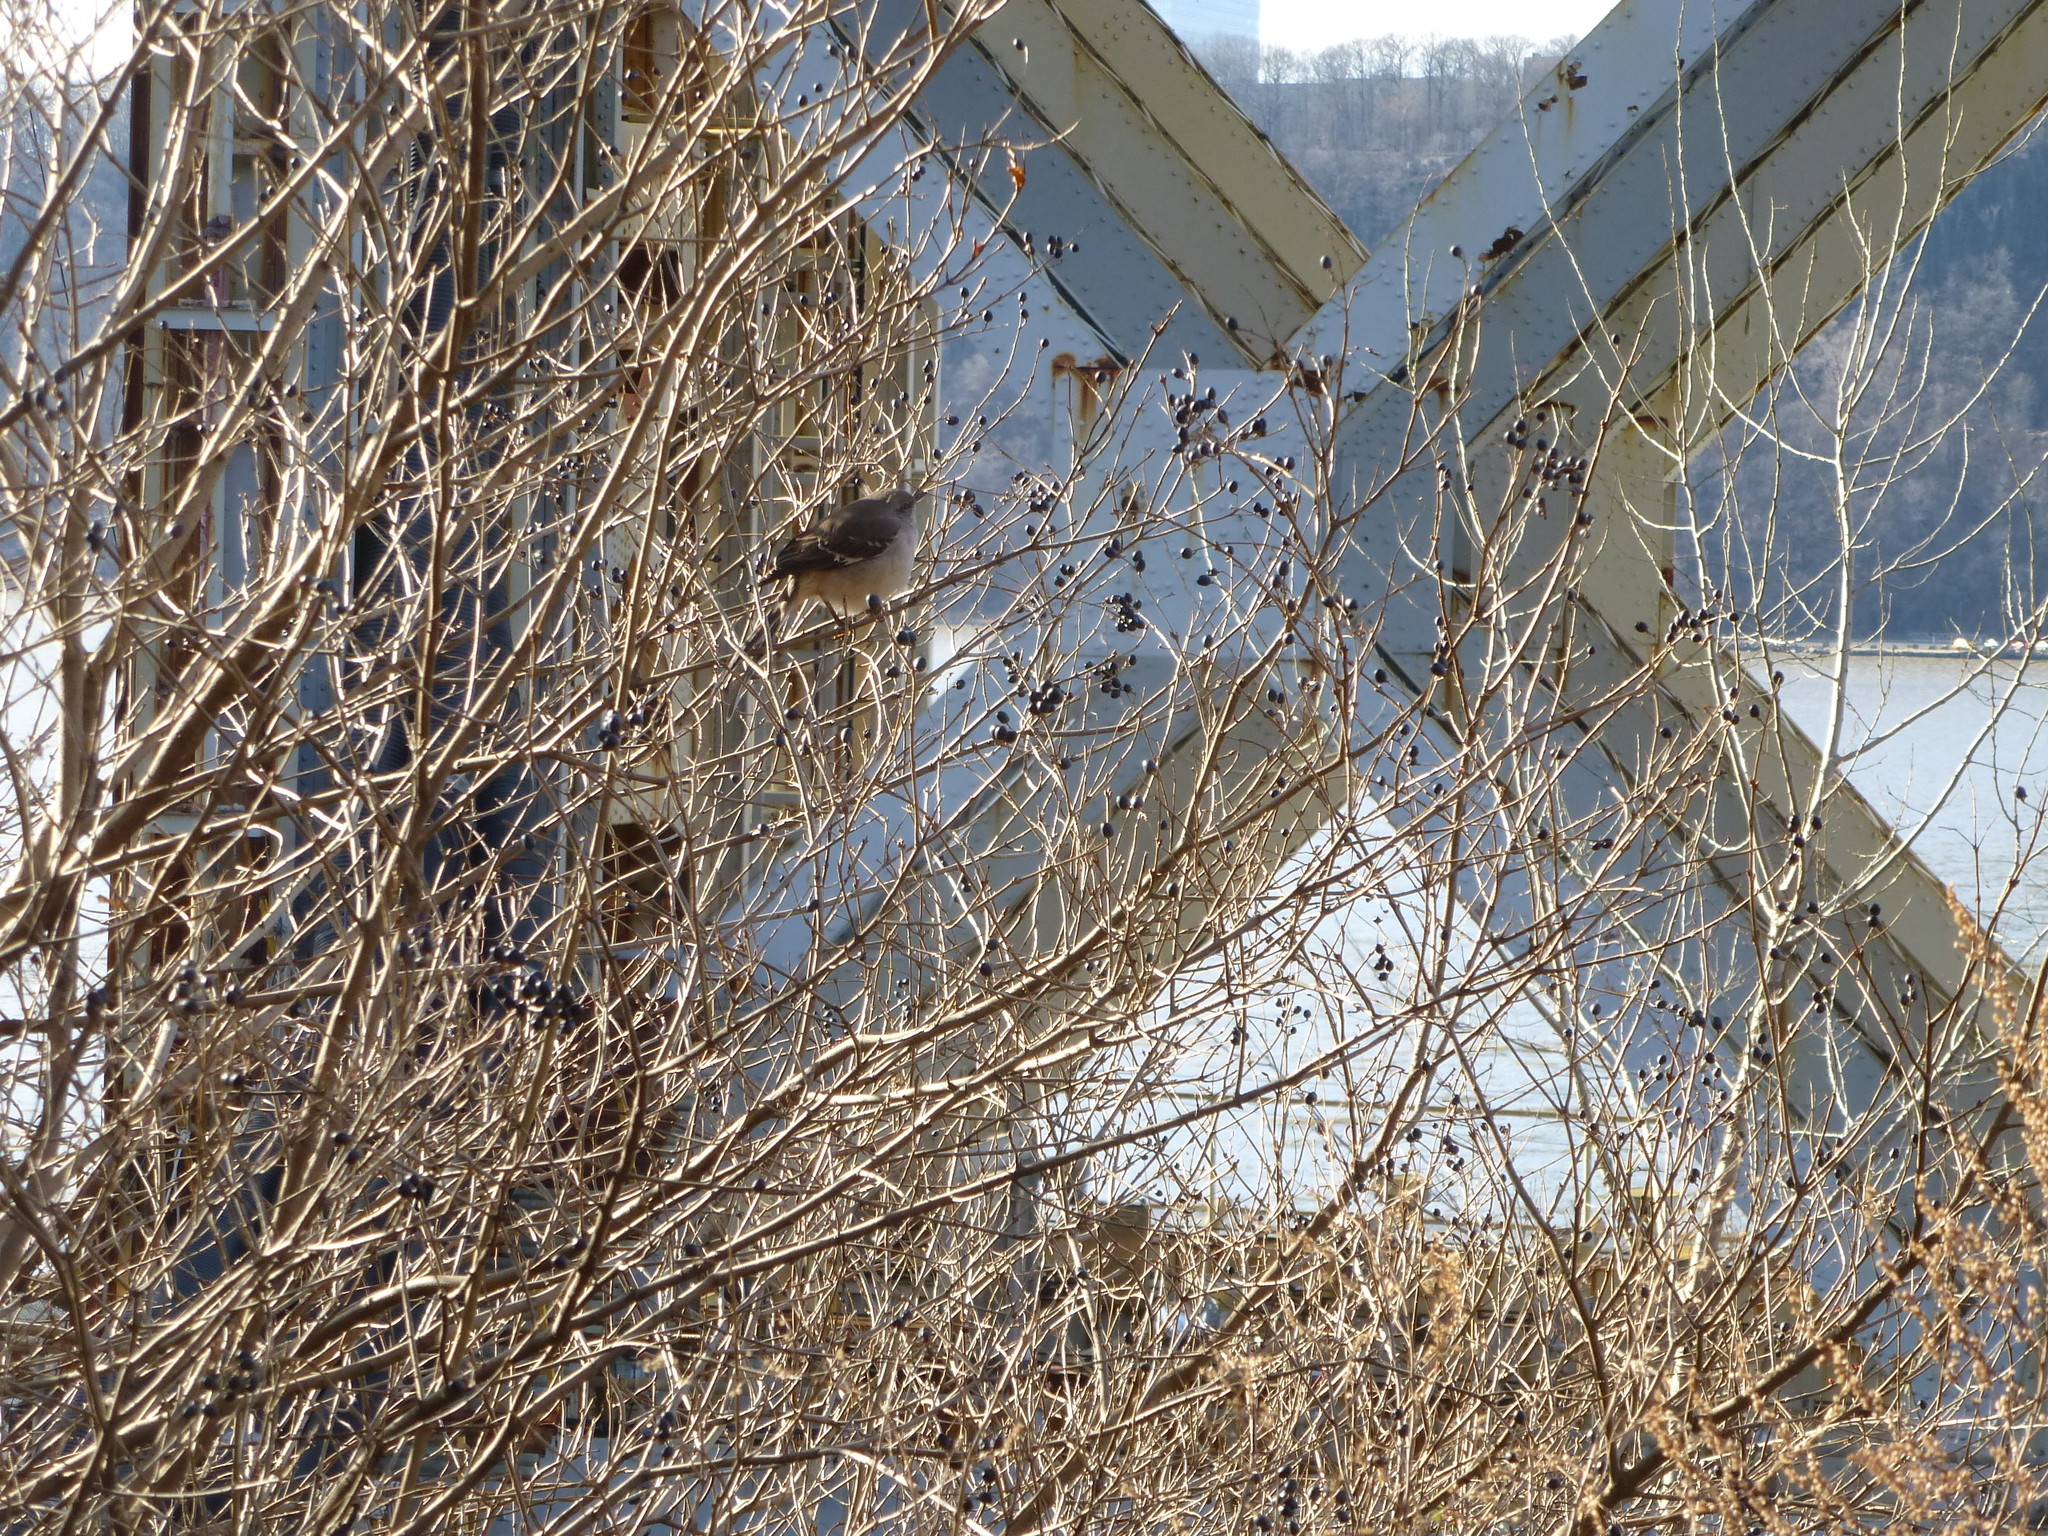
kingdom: Animalia
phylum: Chordata
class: Aves
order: Passeriformes
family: Mimidae
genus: Mimus
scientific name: Mimus polyglottos
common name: Northern mockingbird
